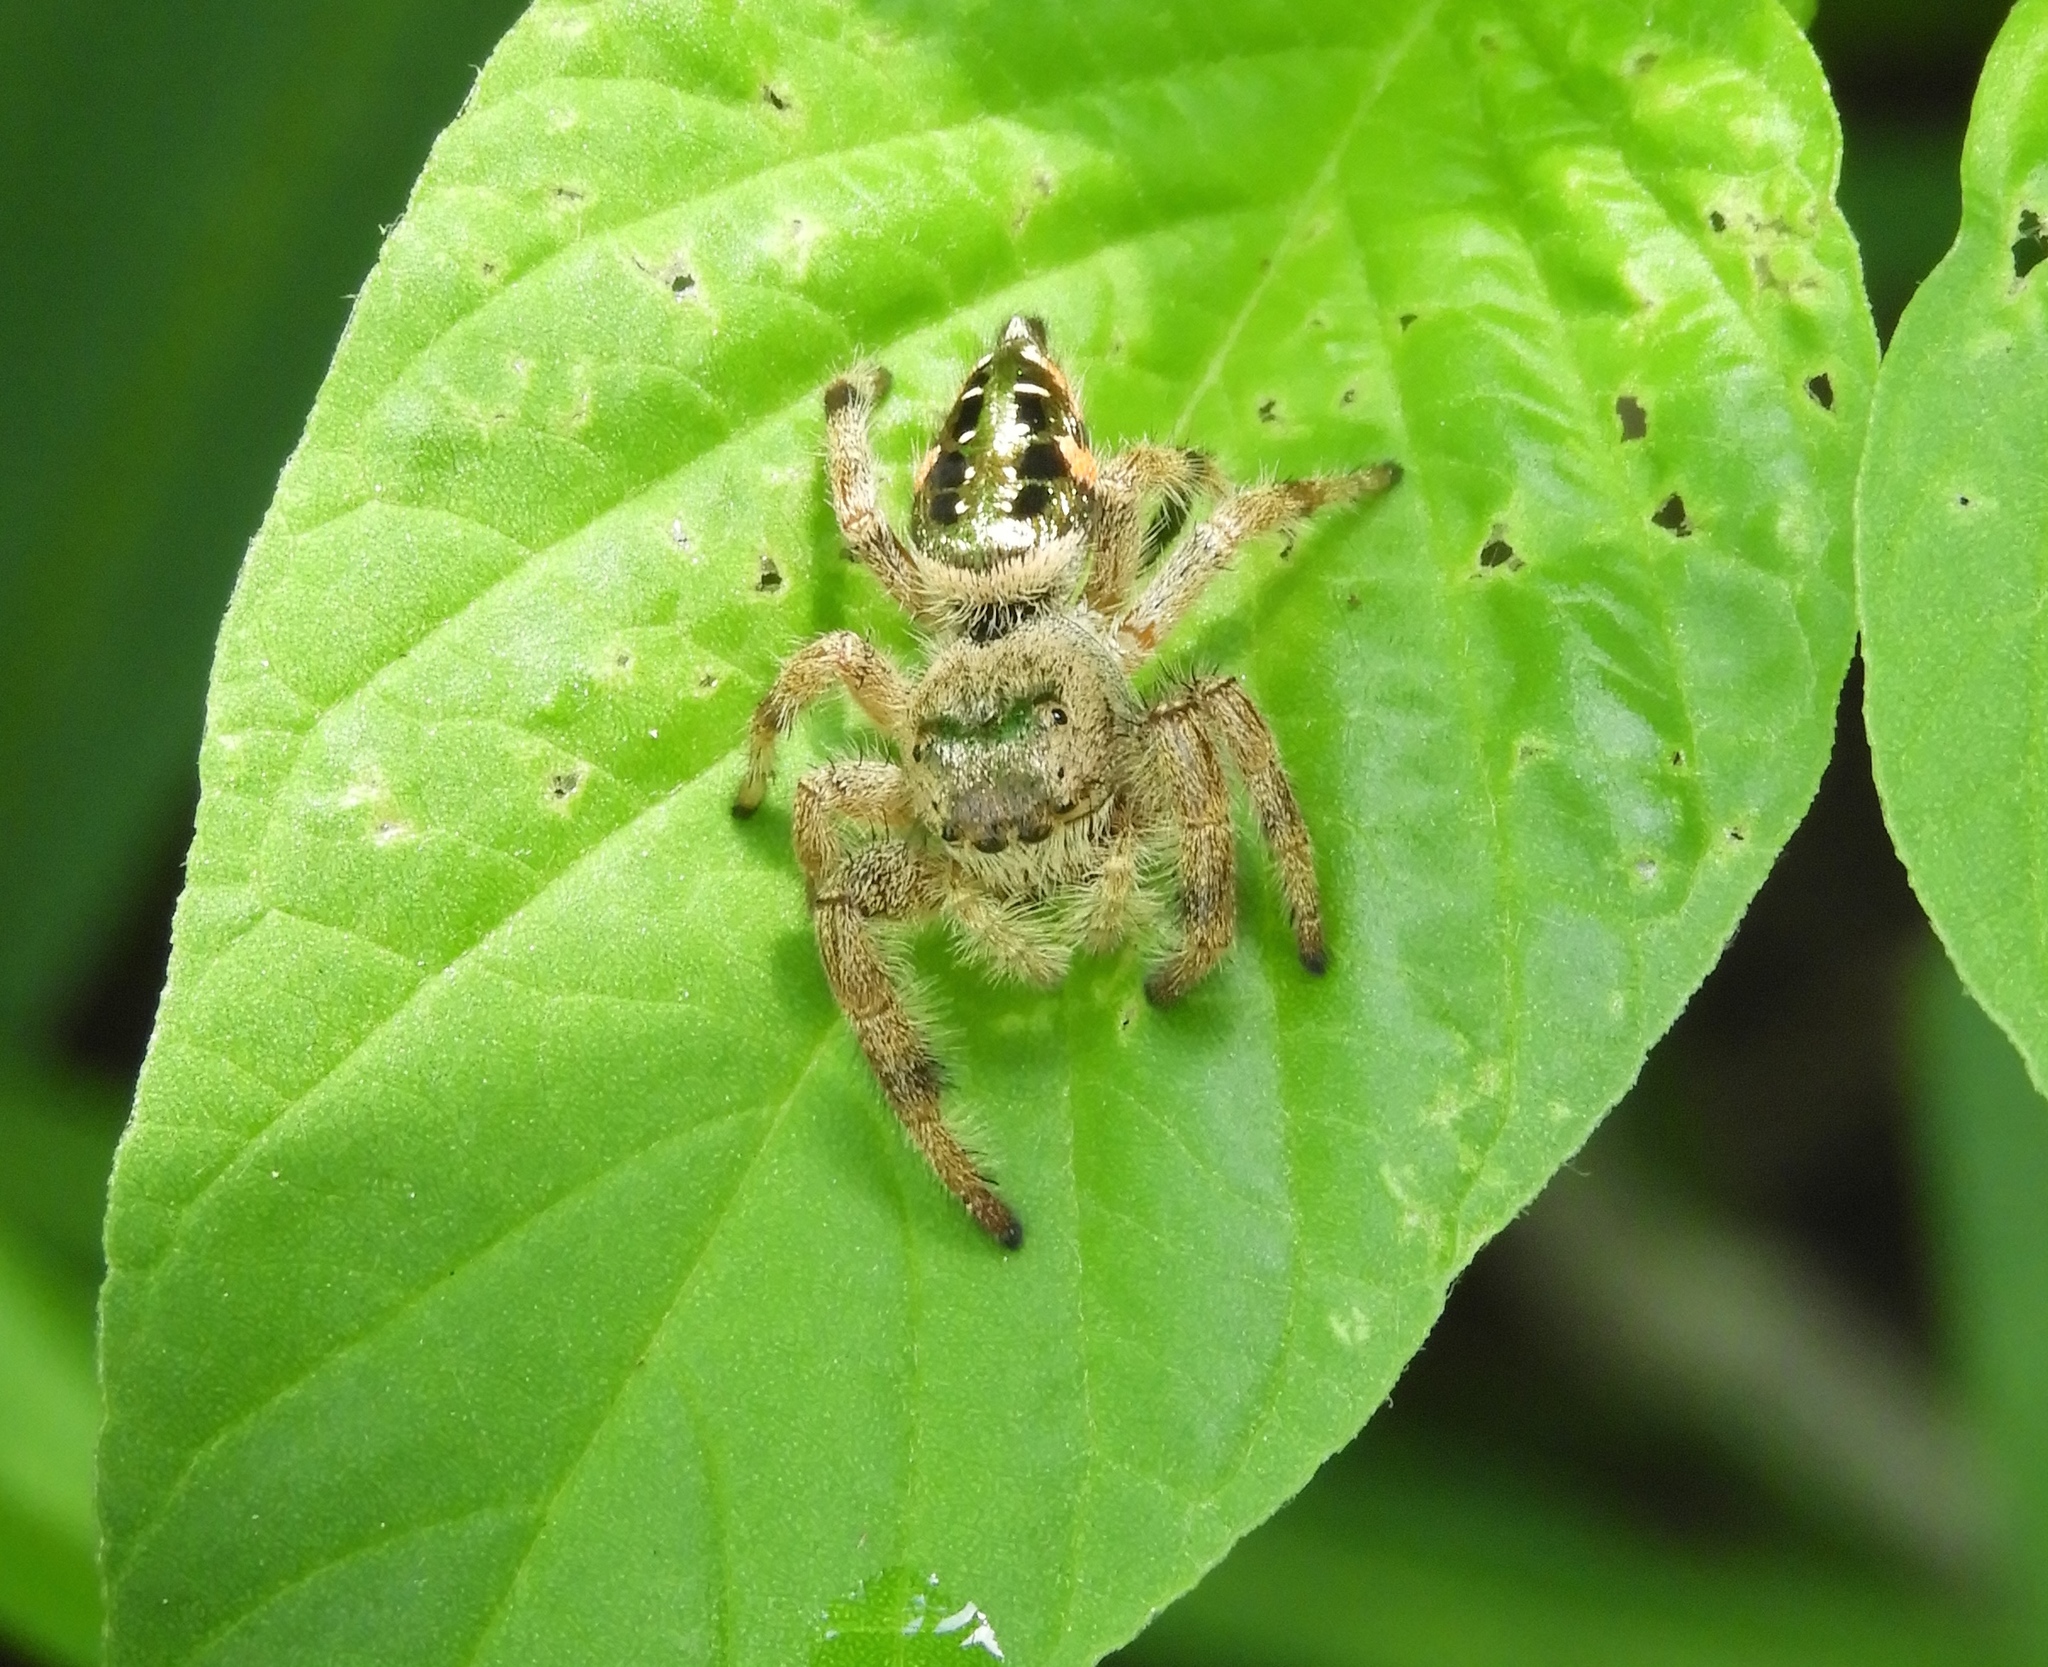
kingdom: Animalia
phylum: Arthropoda
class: Arachnida
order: Araneae
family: Salticidae
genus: Paraphidippus
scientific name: Paraphidippus
